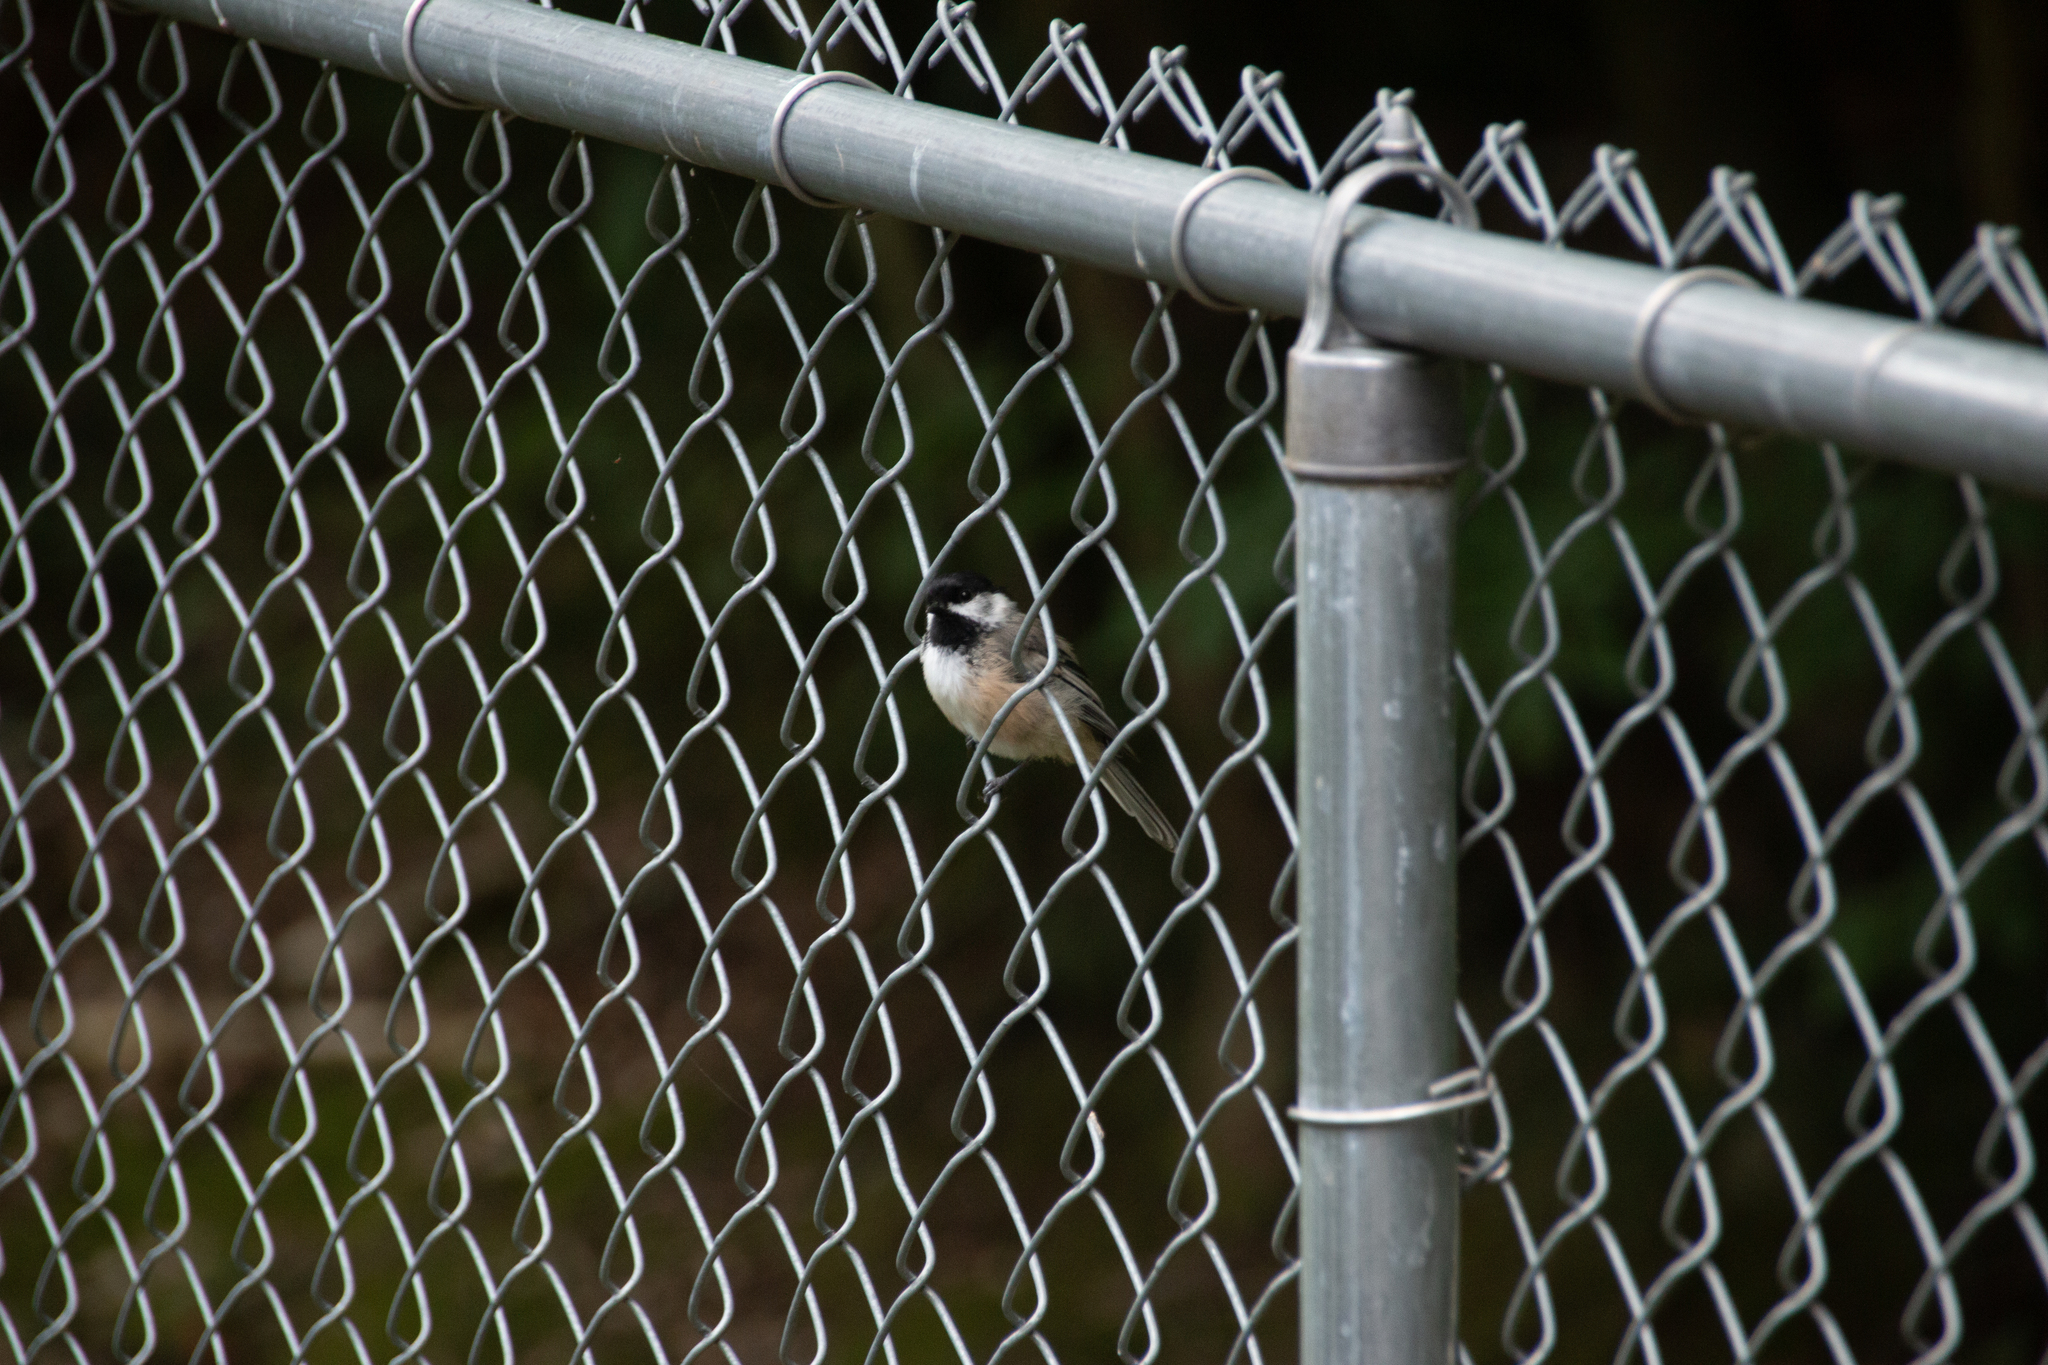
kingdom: Animalia
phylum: Chordata
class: Aves
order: Passeriformes
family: Paridae
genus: Poecile
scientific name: Poecile atricapillus
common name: Black-capped chickadee
